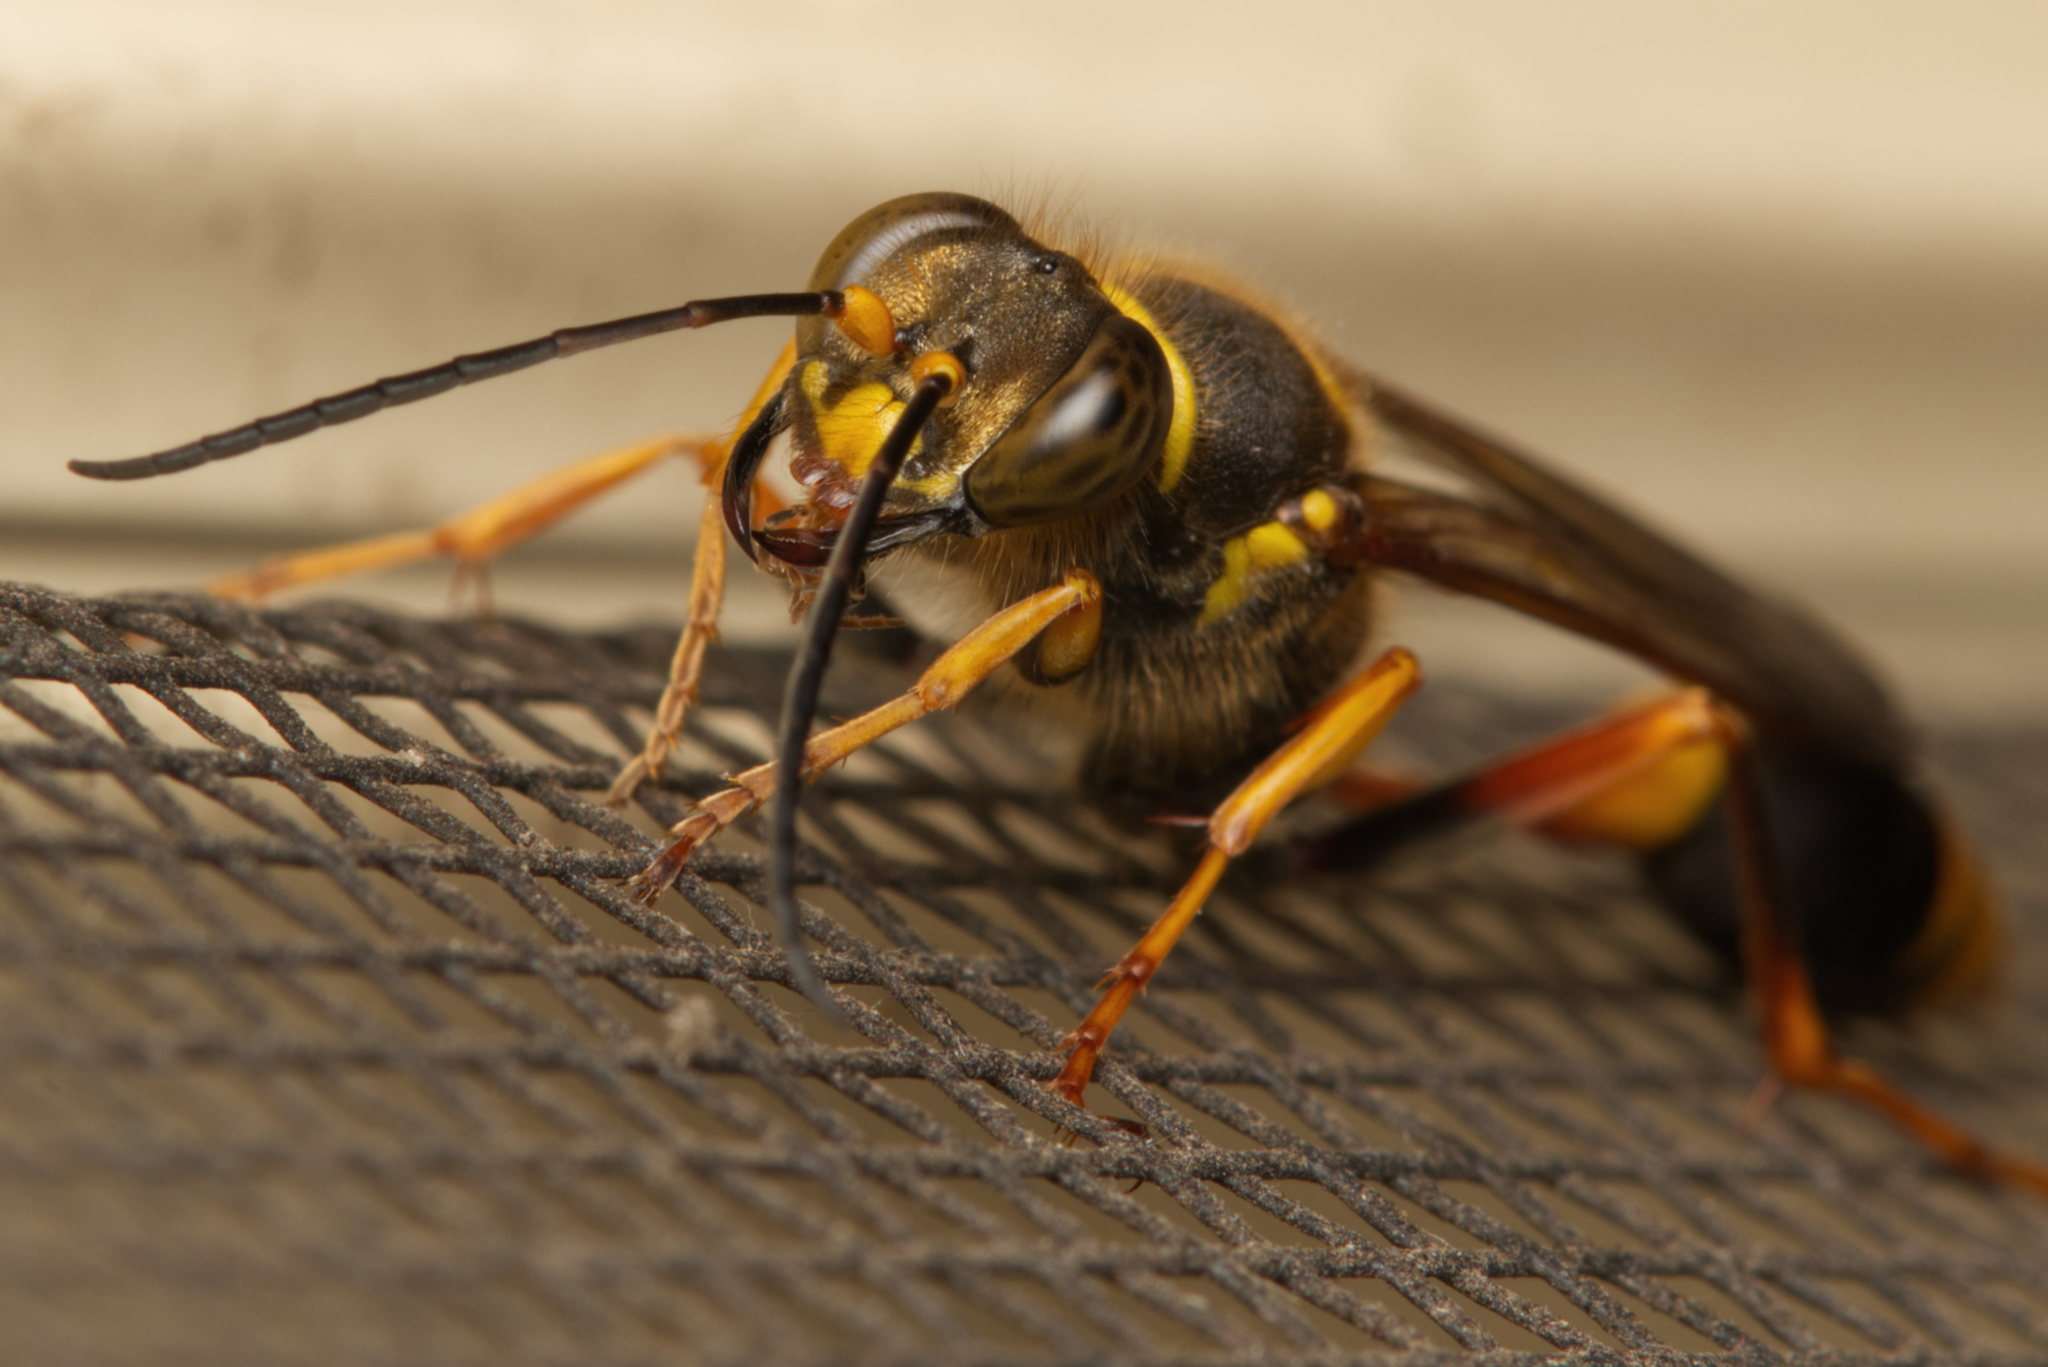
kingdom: Animalia
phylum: Arthropoda
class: Insecta
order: Hymenoptera
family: Sphecidae
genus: Sceliphron
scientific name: Sceliphron formosum
